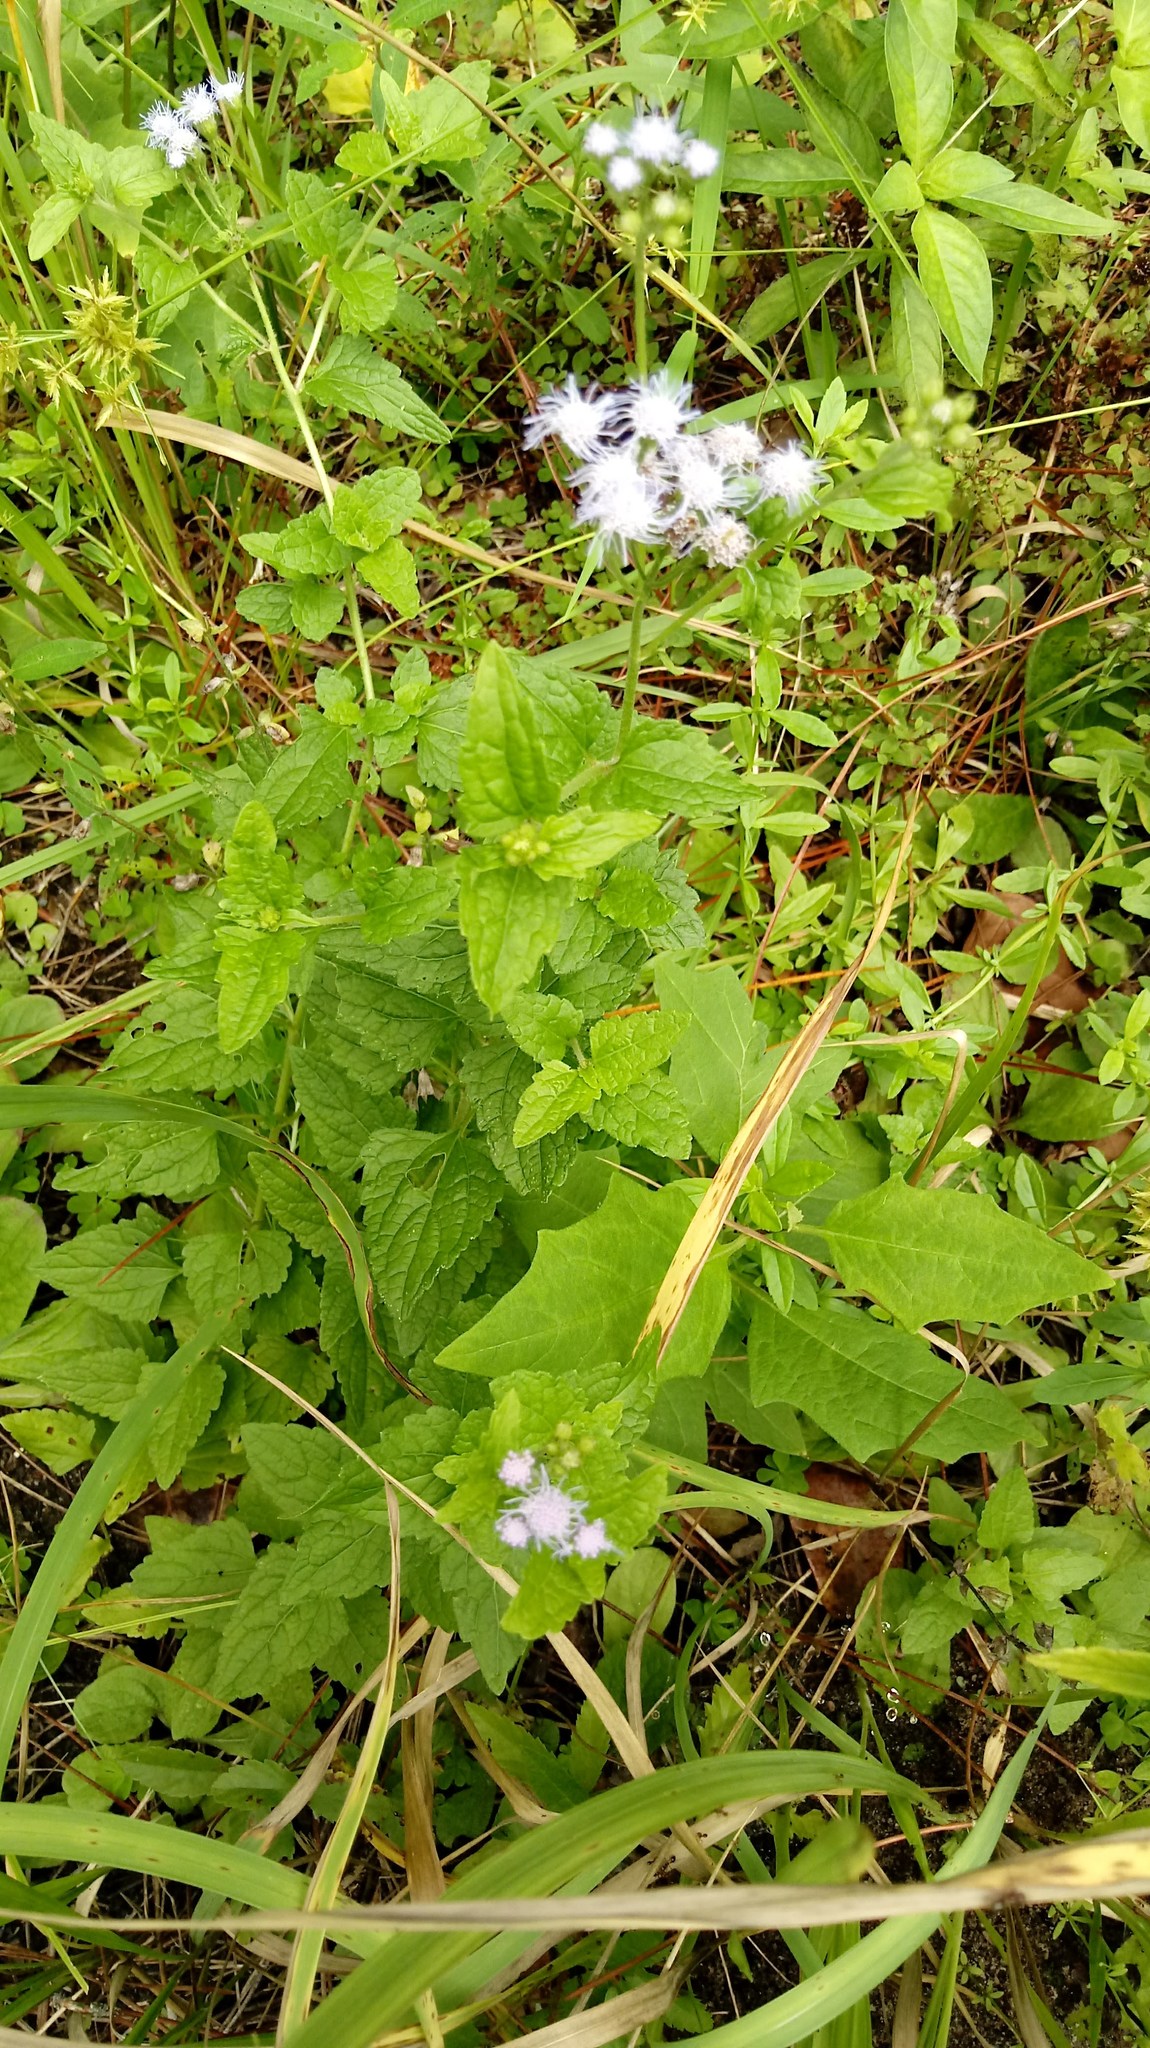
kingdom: Plantae
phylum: Tracheophyta
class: Magnoliopsida
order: Asterales
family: Asteraceae
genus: Conoclinium
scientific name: Conoclinium coelestinum
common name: Blue mistflower
